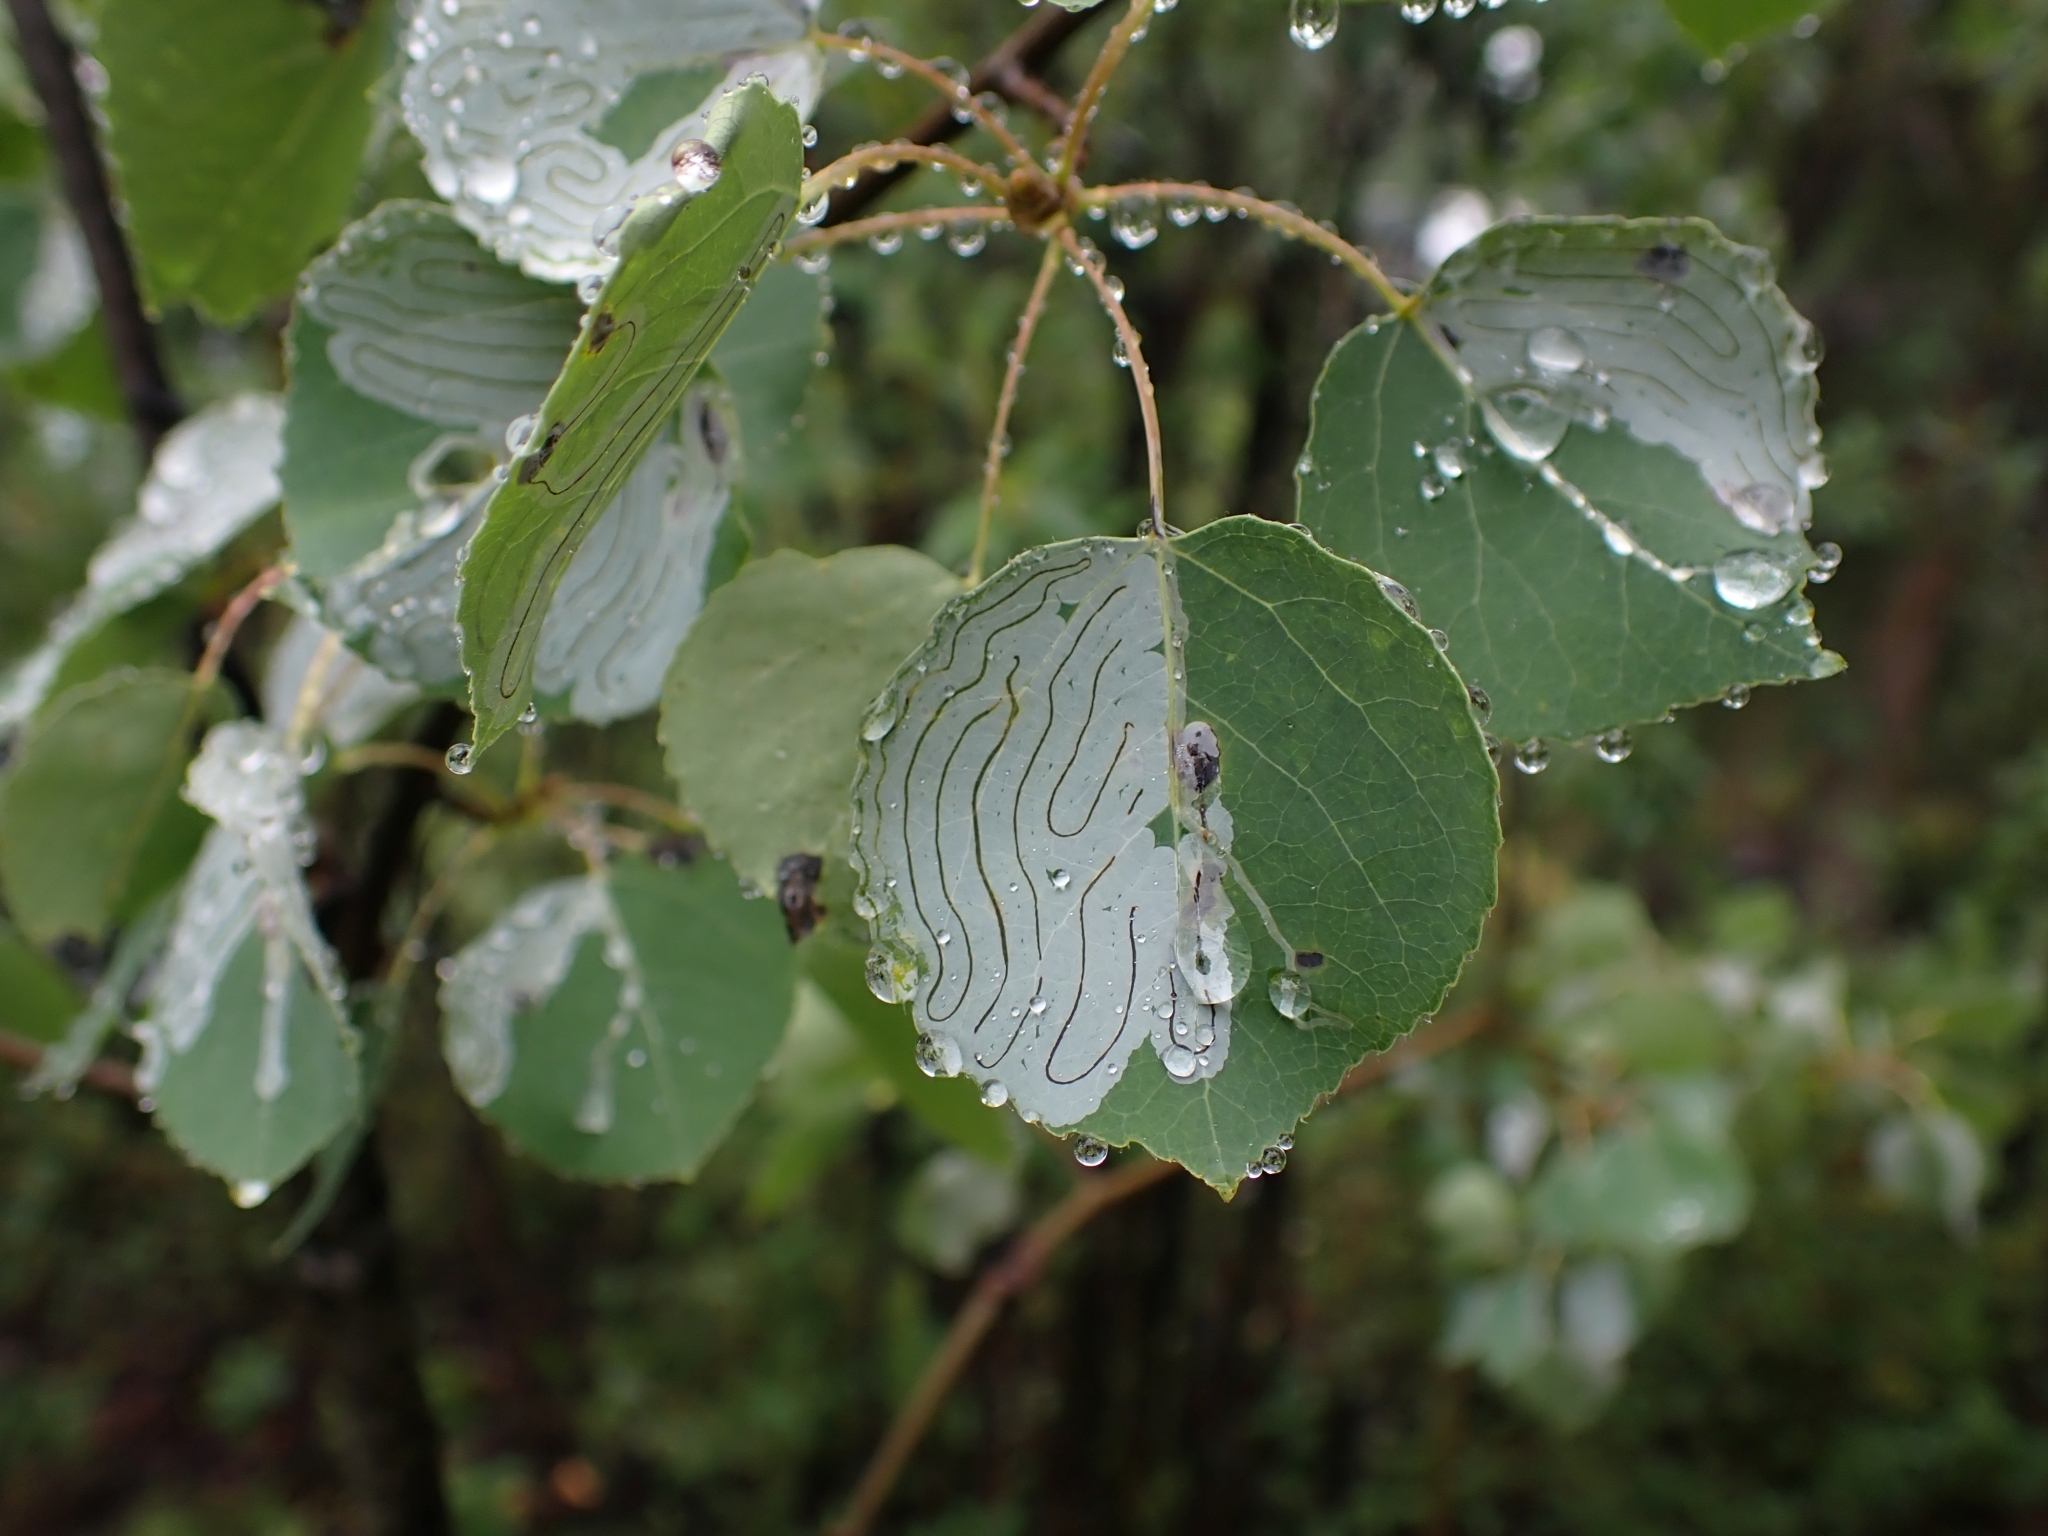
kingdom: Plantae
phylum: Tracheophyta
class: Magnoliopsida
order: Malpighiales
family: Salicaceae
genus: Populus
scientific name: Populus tremuloides
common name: Quaking aspen
